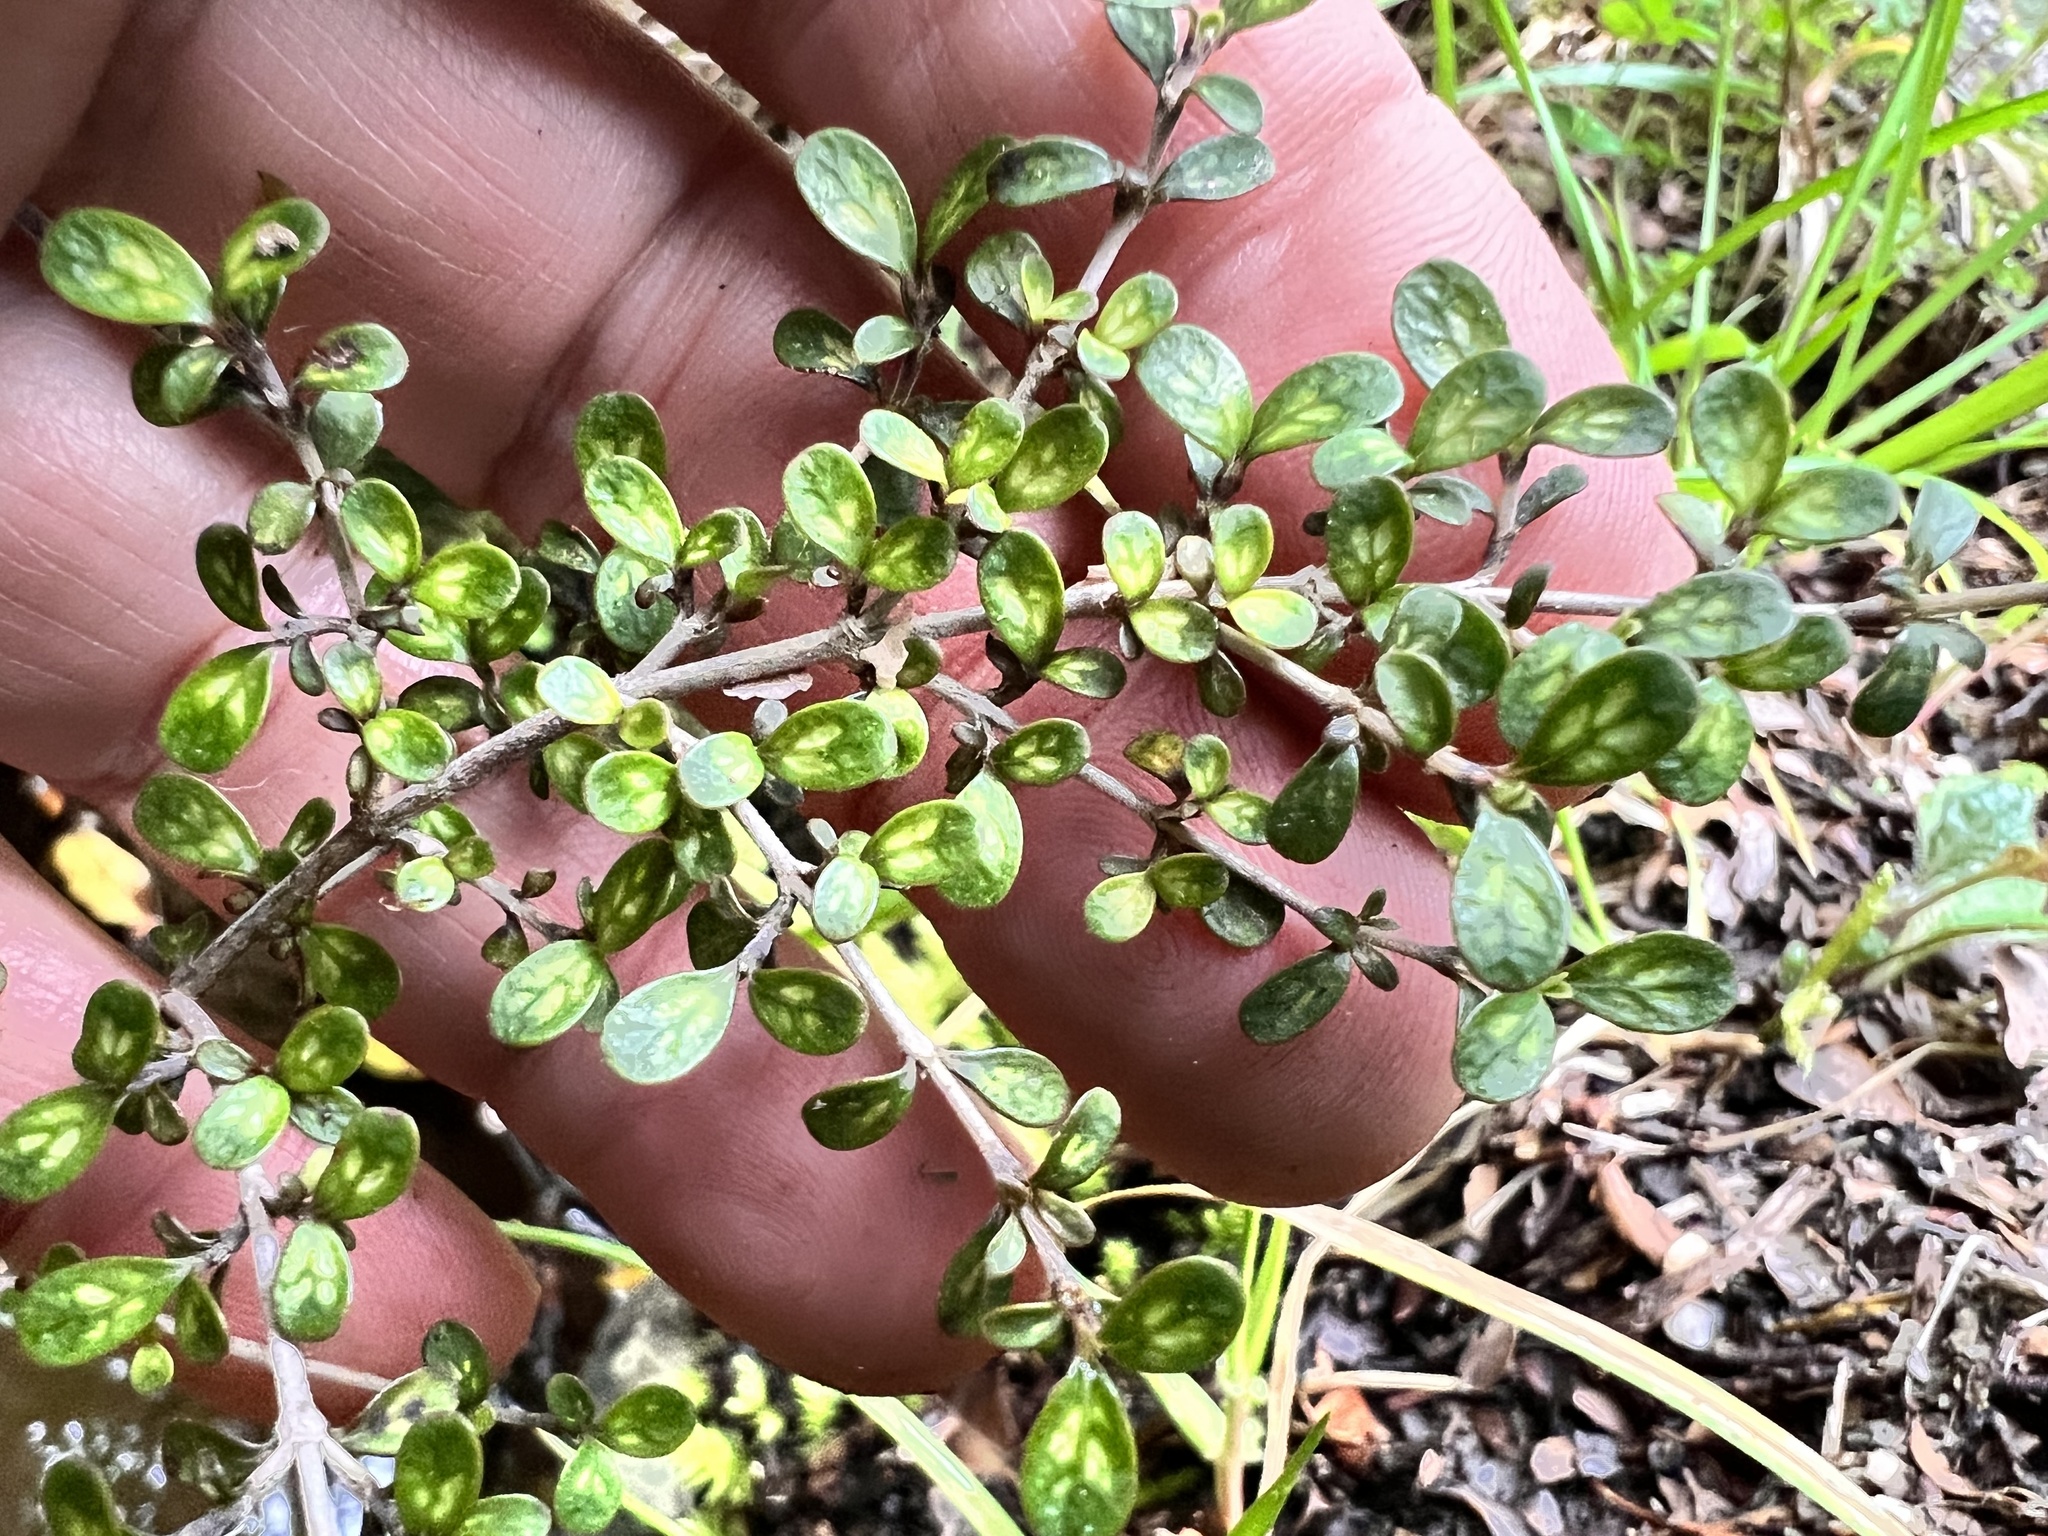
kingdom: Plantae
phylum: Tracheophyta
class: Magnoliopsida
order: Gentianales
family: Rubiaceae
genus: Coprosma
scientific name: Coprosma dumosa
